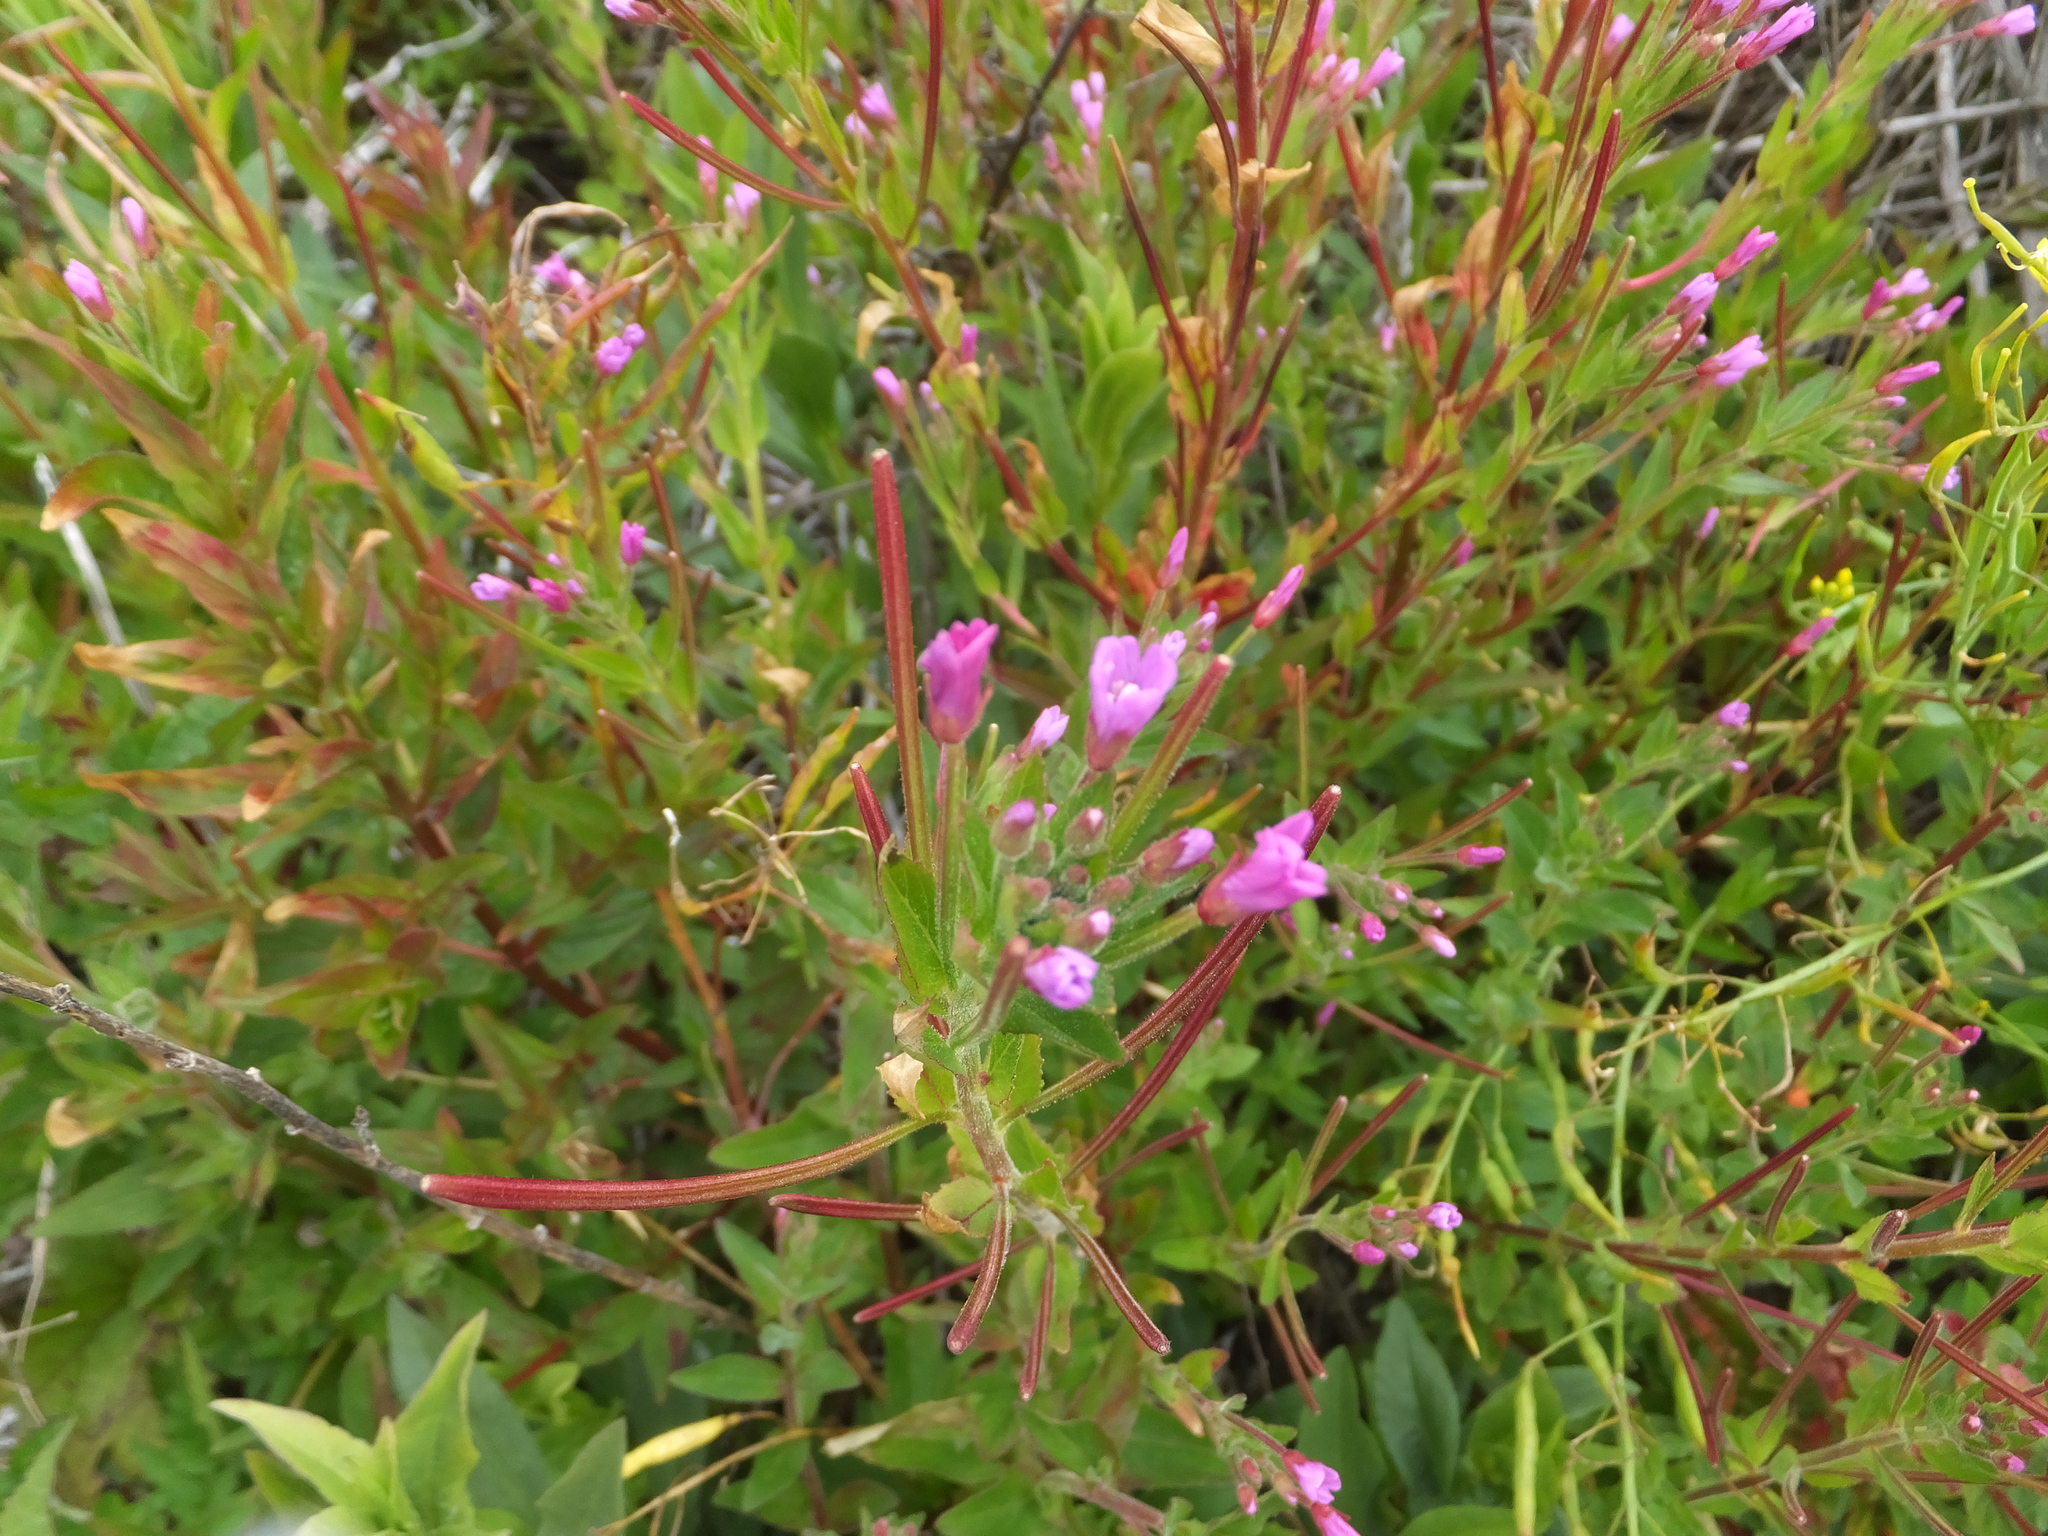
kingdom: Plantae
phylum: Tracheophyta
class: Magnoliopsida
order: Myrtales
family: Onagraceae
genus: Epilobium
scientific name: Epilobium ciliatum
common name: American willowherb
